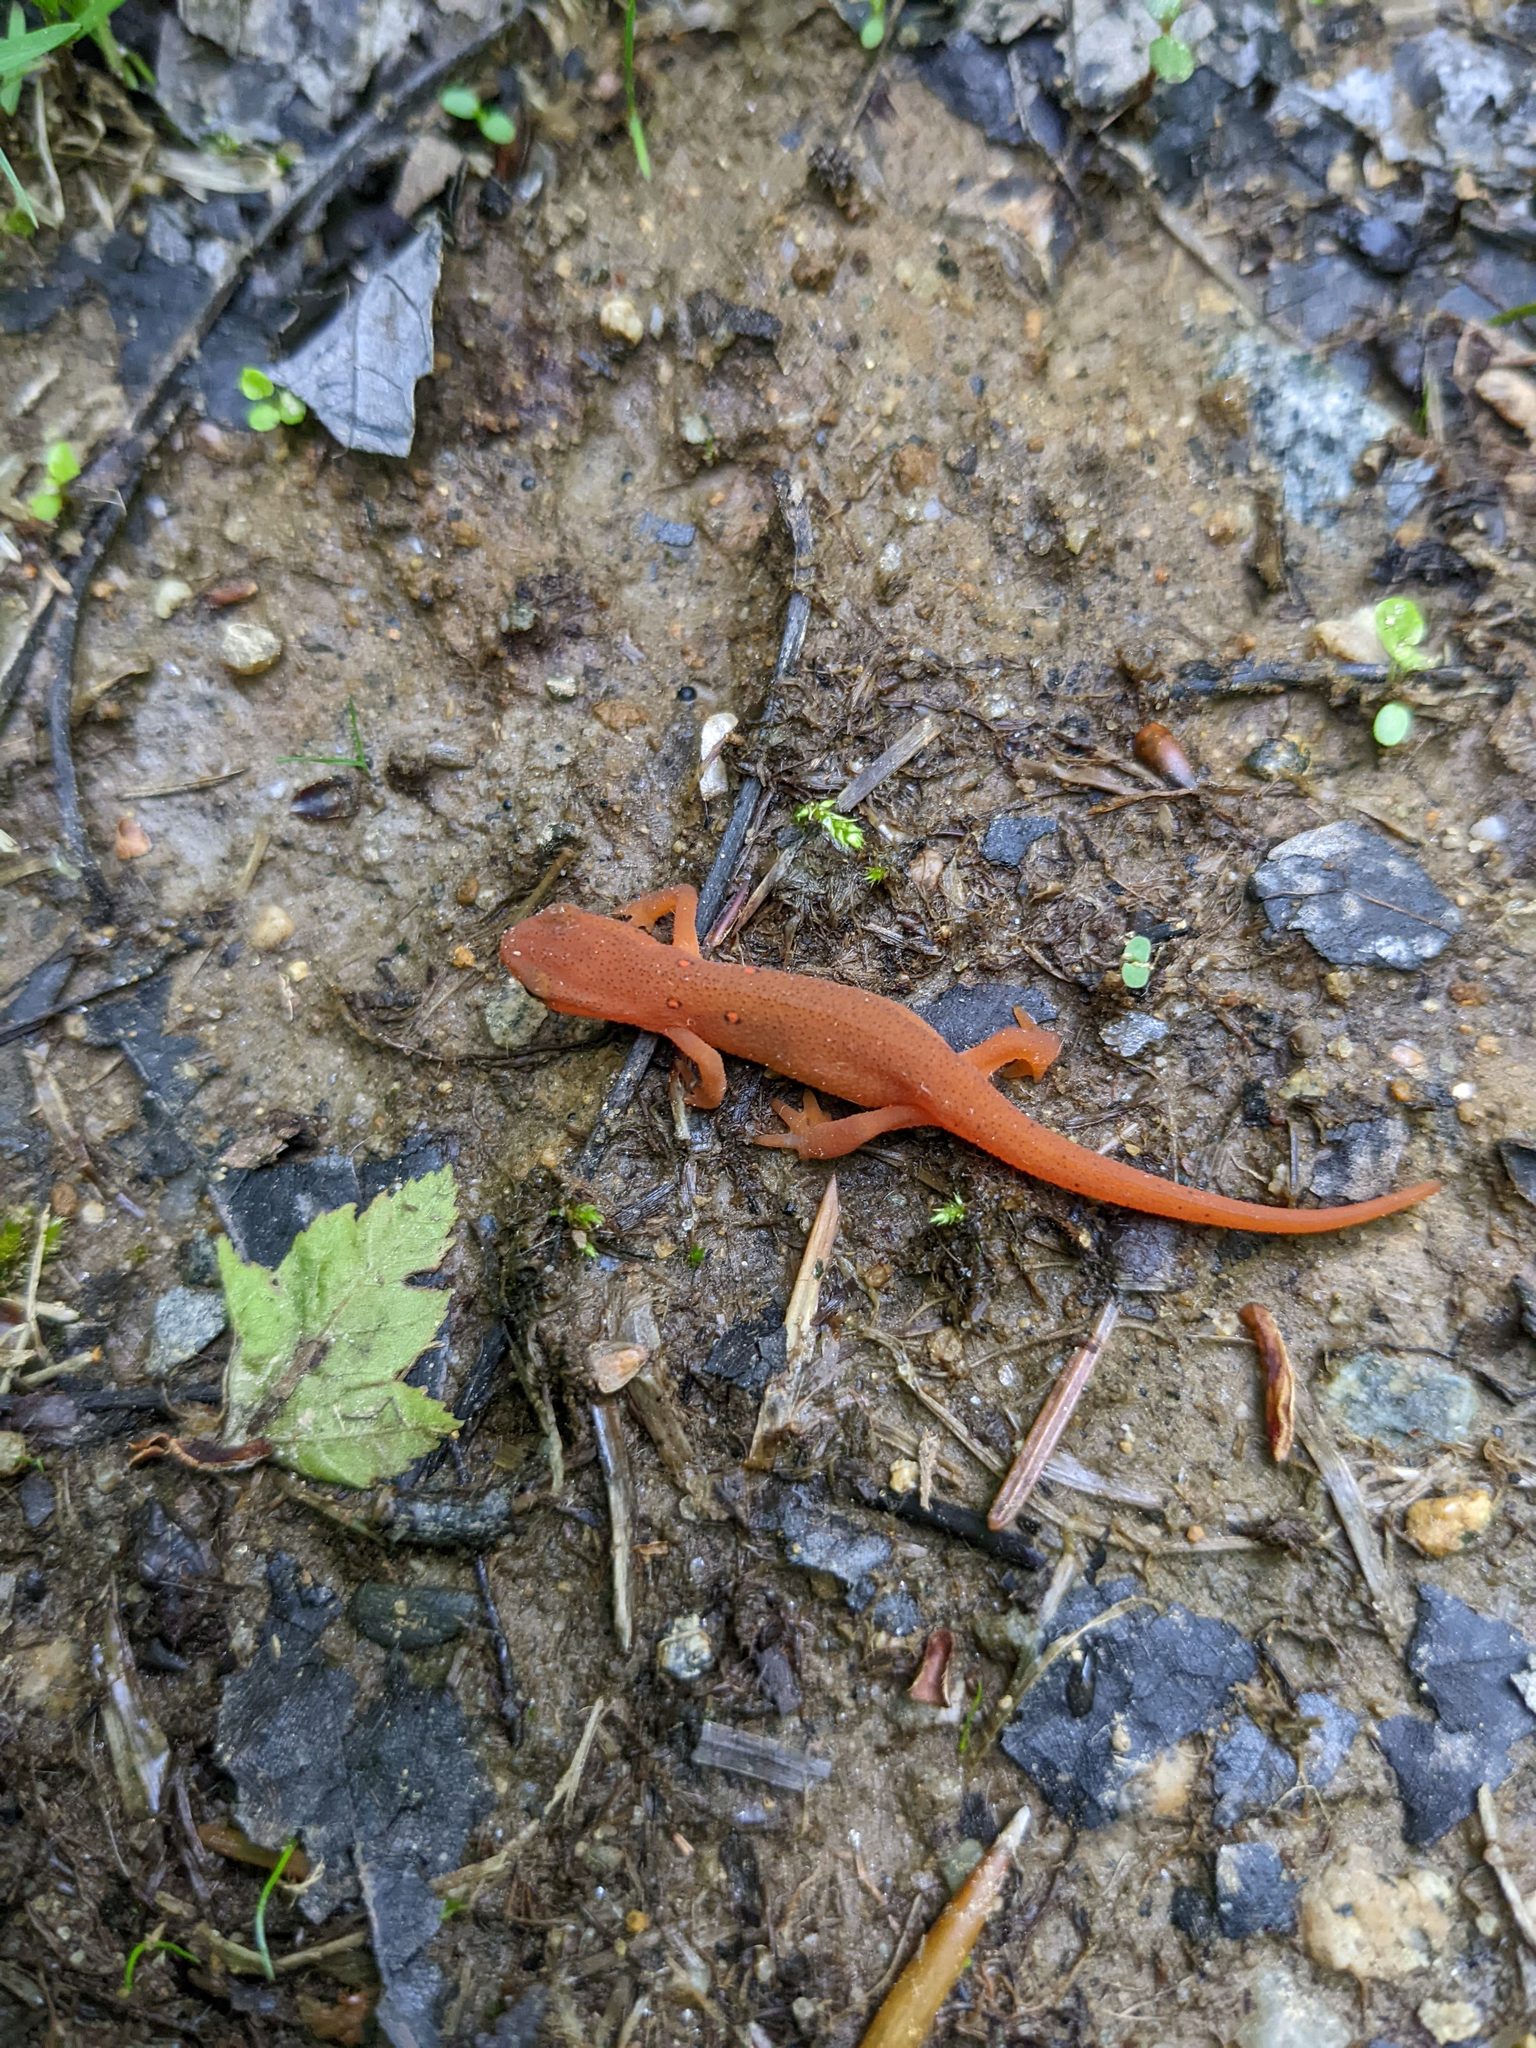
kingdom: Animalia
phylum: Chordata
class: Amphibia
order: Caudata
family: Salamandridae
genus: Notophthalmus
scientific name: Notophthalmus viridescens
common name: Eastern newt
